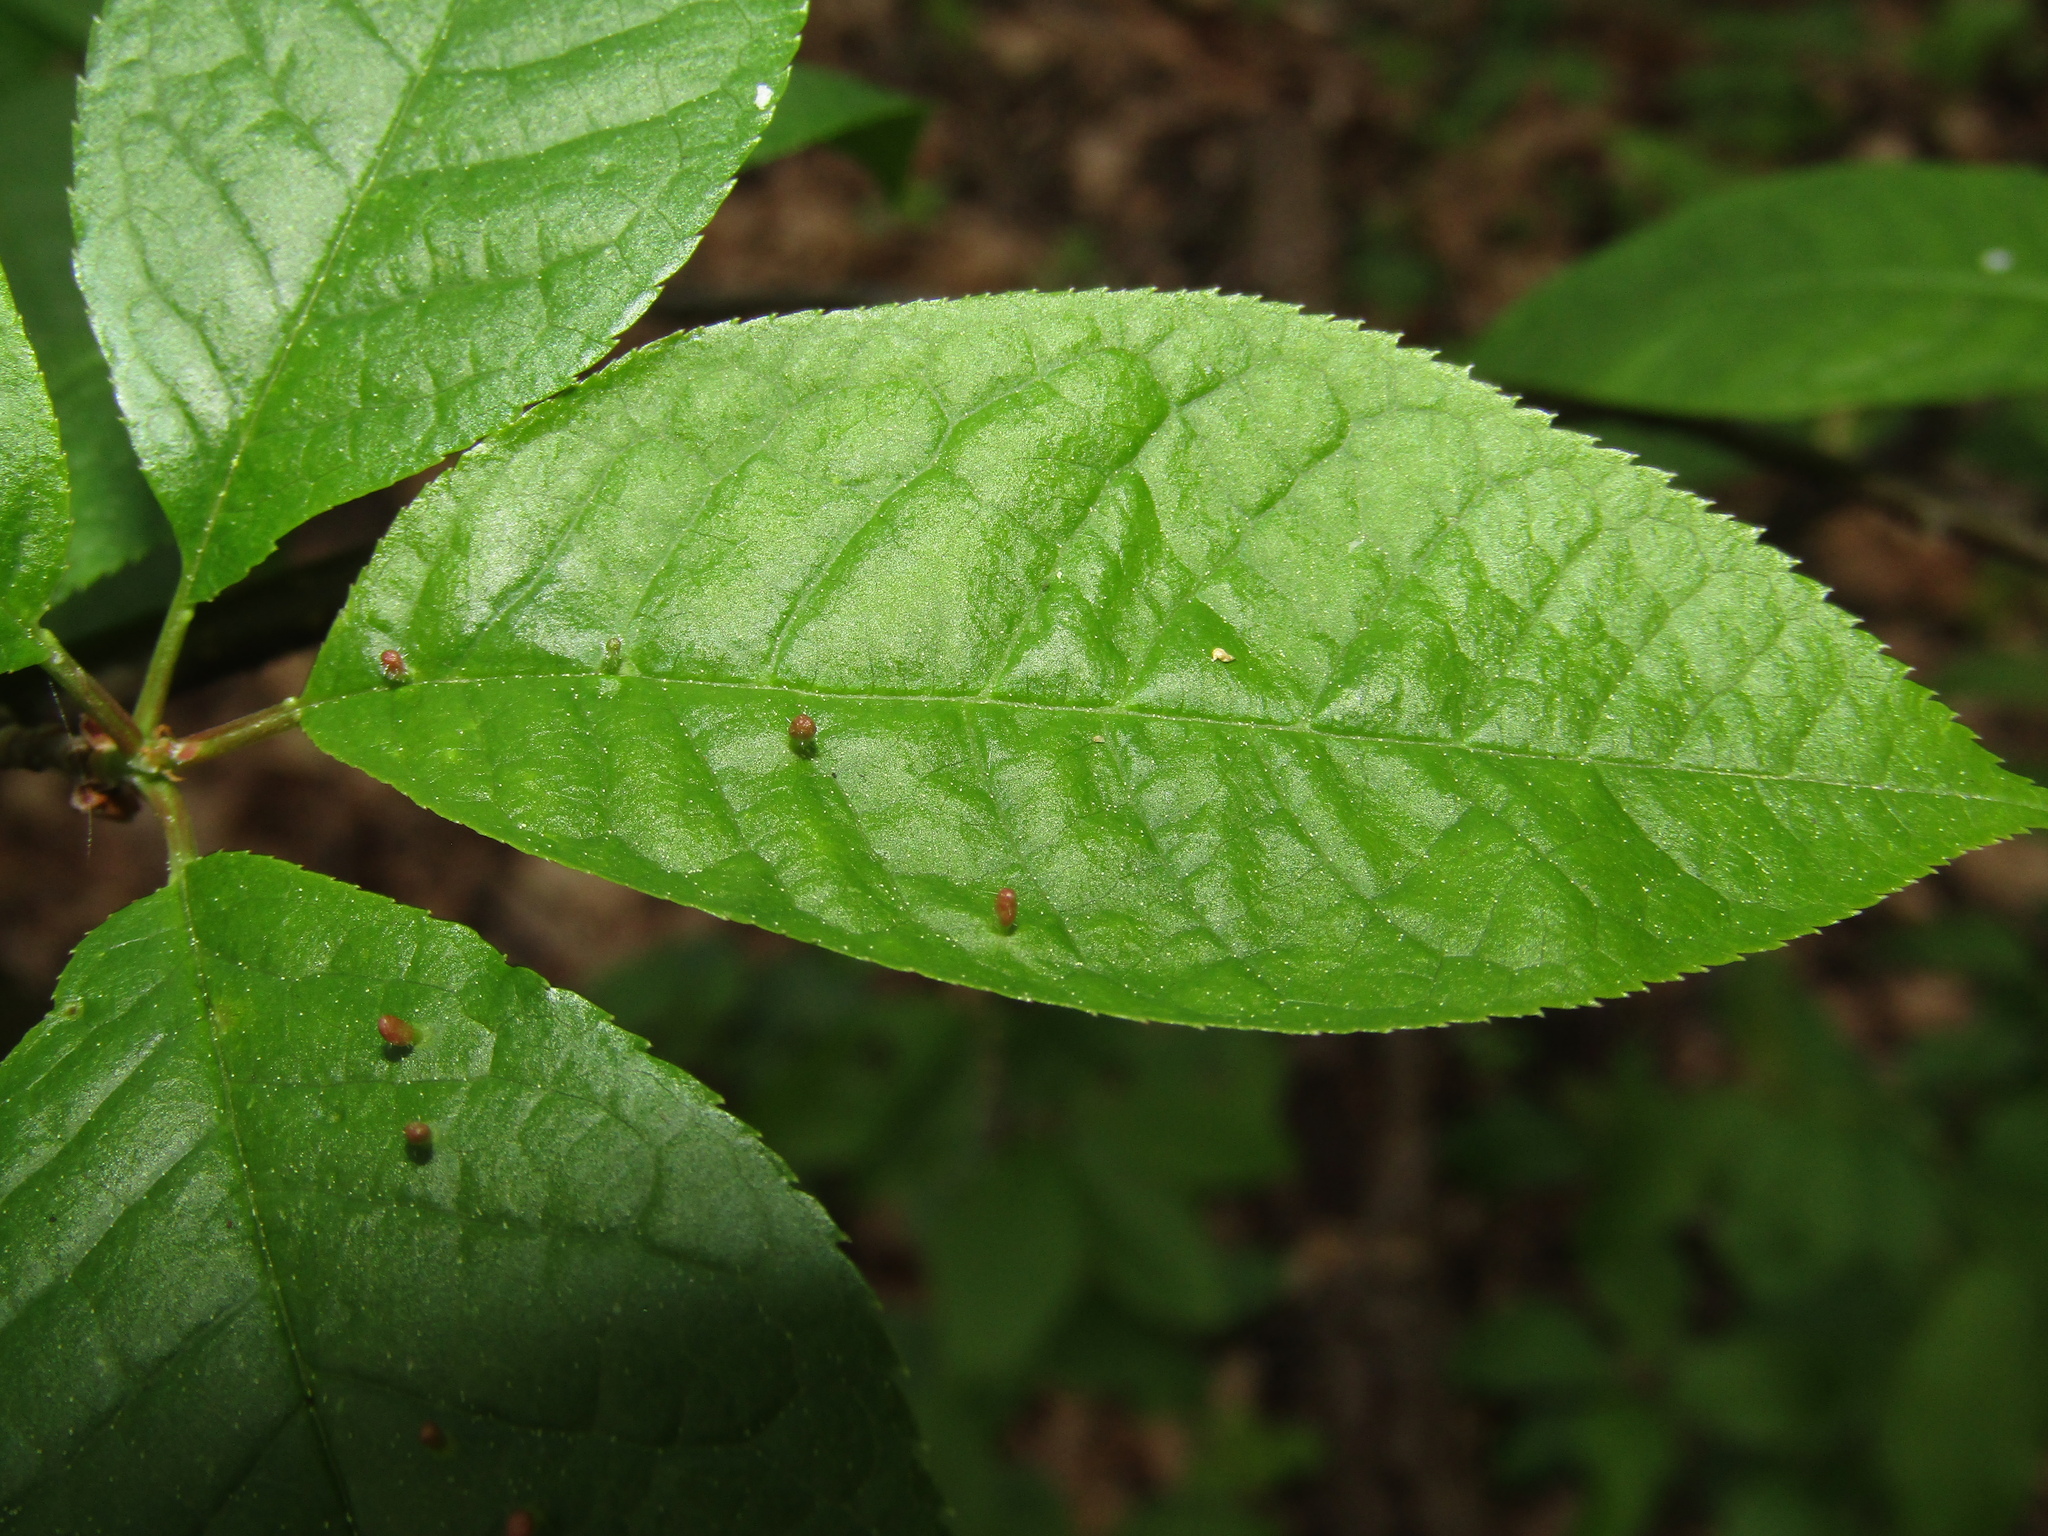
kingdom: Plantae
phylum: Tracheophyta
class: Magnoliopsida
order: Rosales
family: Rosaceae
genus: Prunus
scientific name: Prunus padus
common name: Bird cherry
